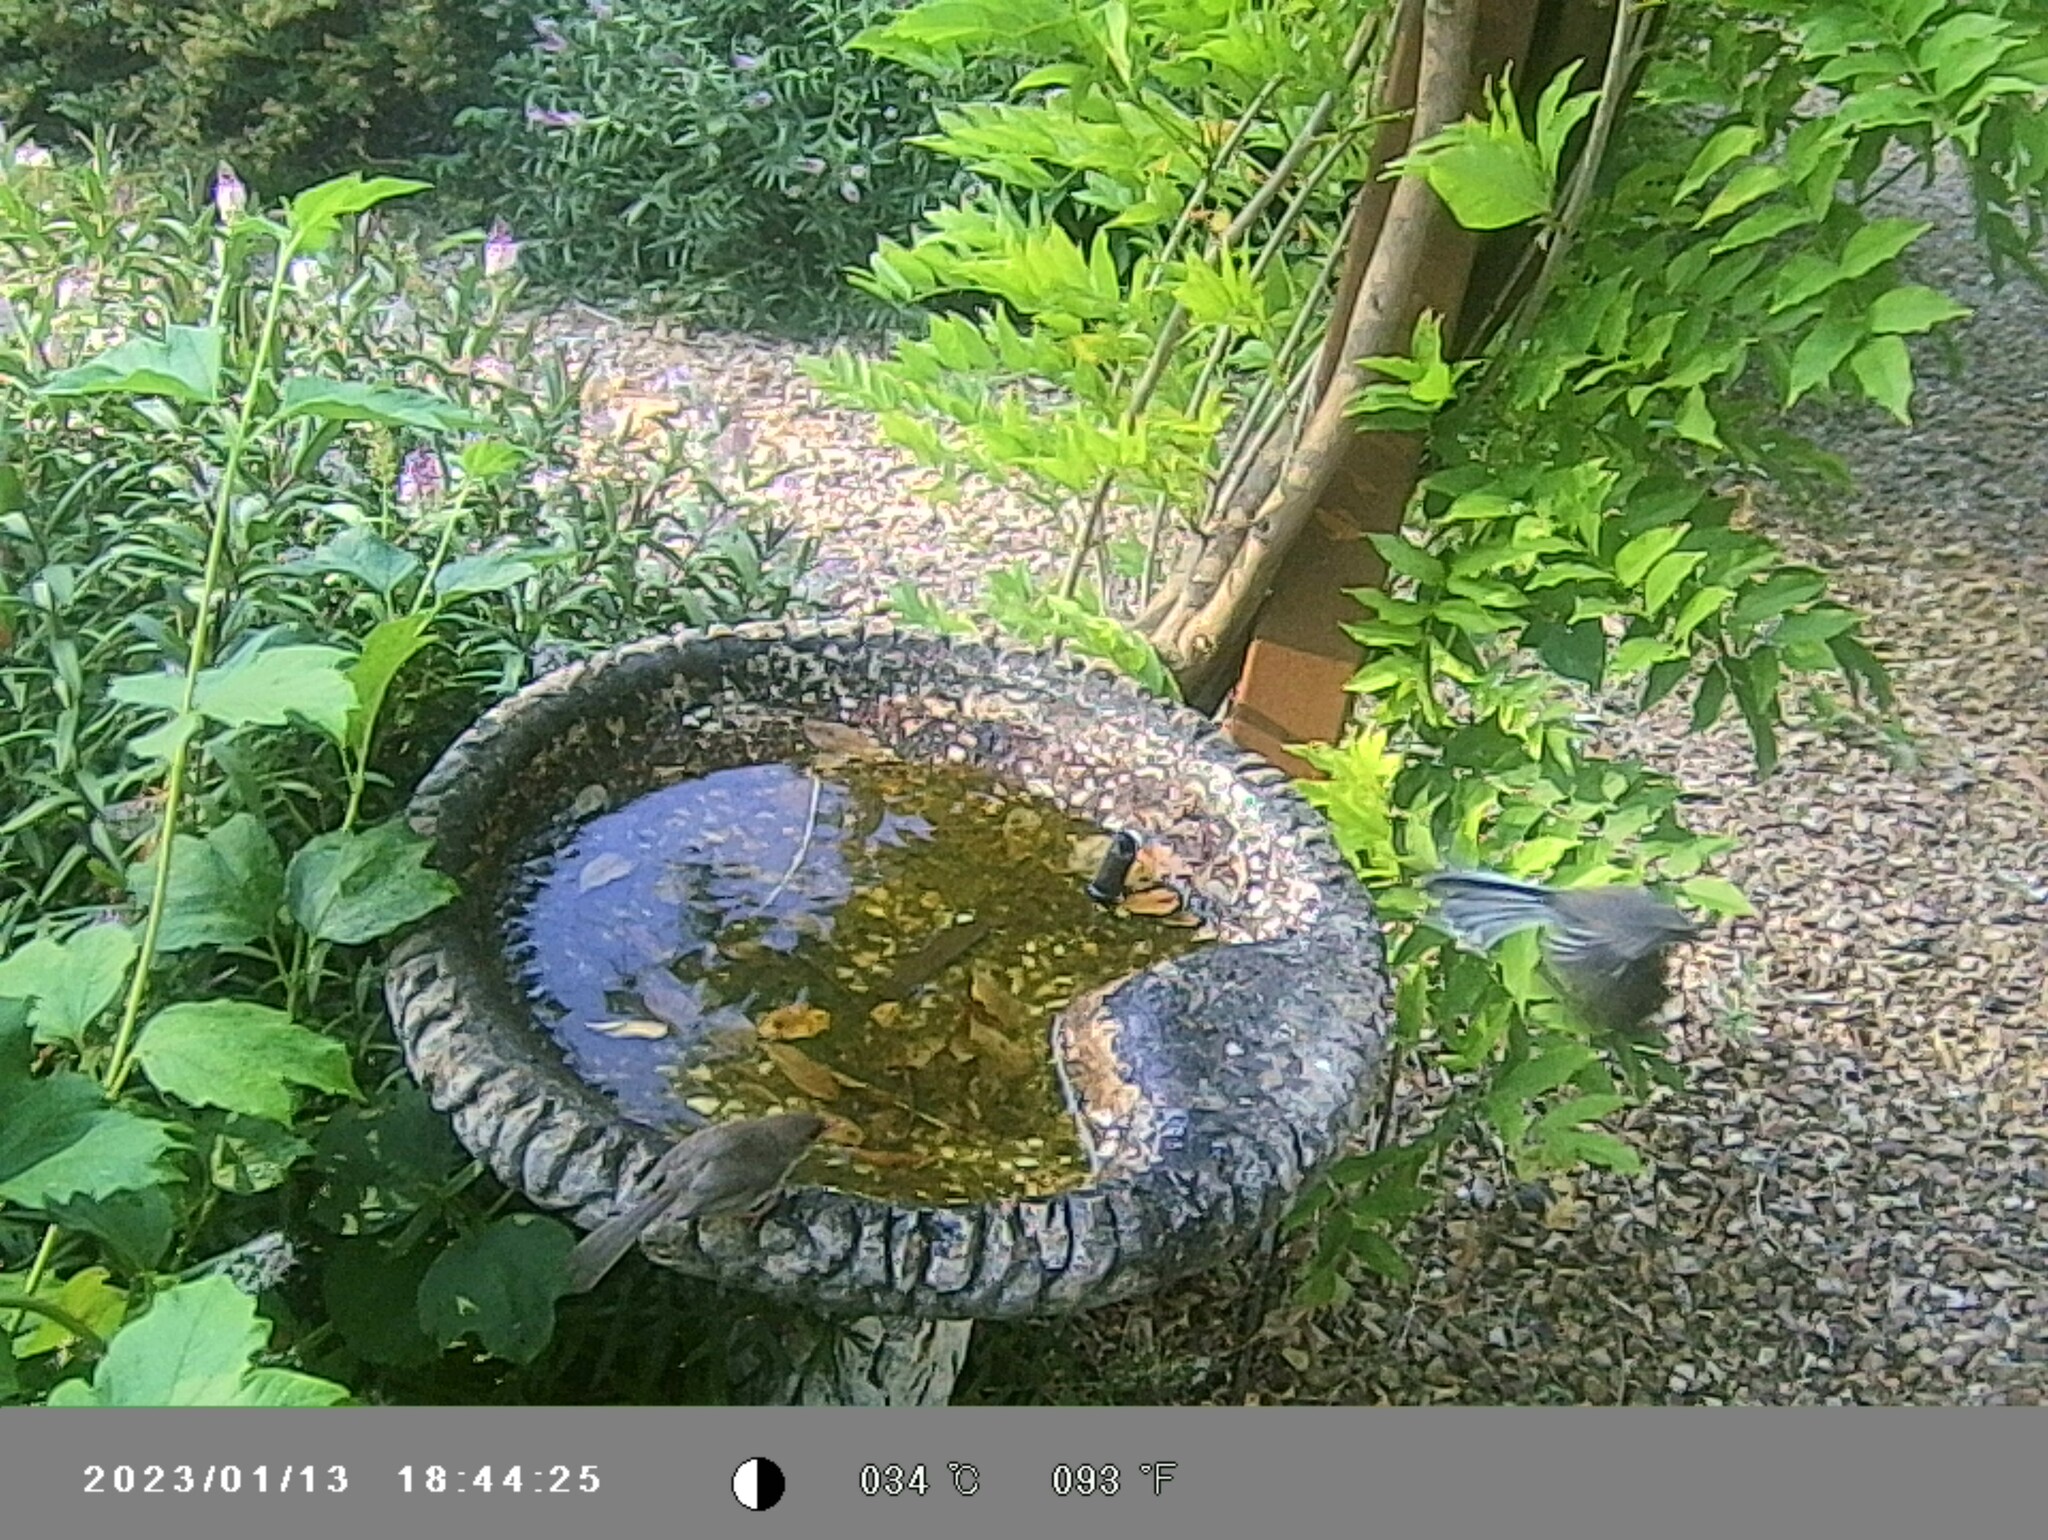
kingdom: Animalia
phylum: Chordata
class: Aves
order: Passeriformes
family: Rhipiduridae
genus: Rhipidura
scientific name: Rhipidura albiscapa
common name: Grey fantail
